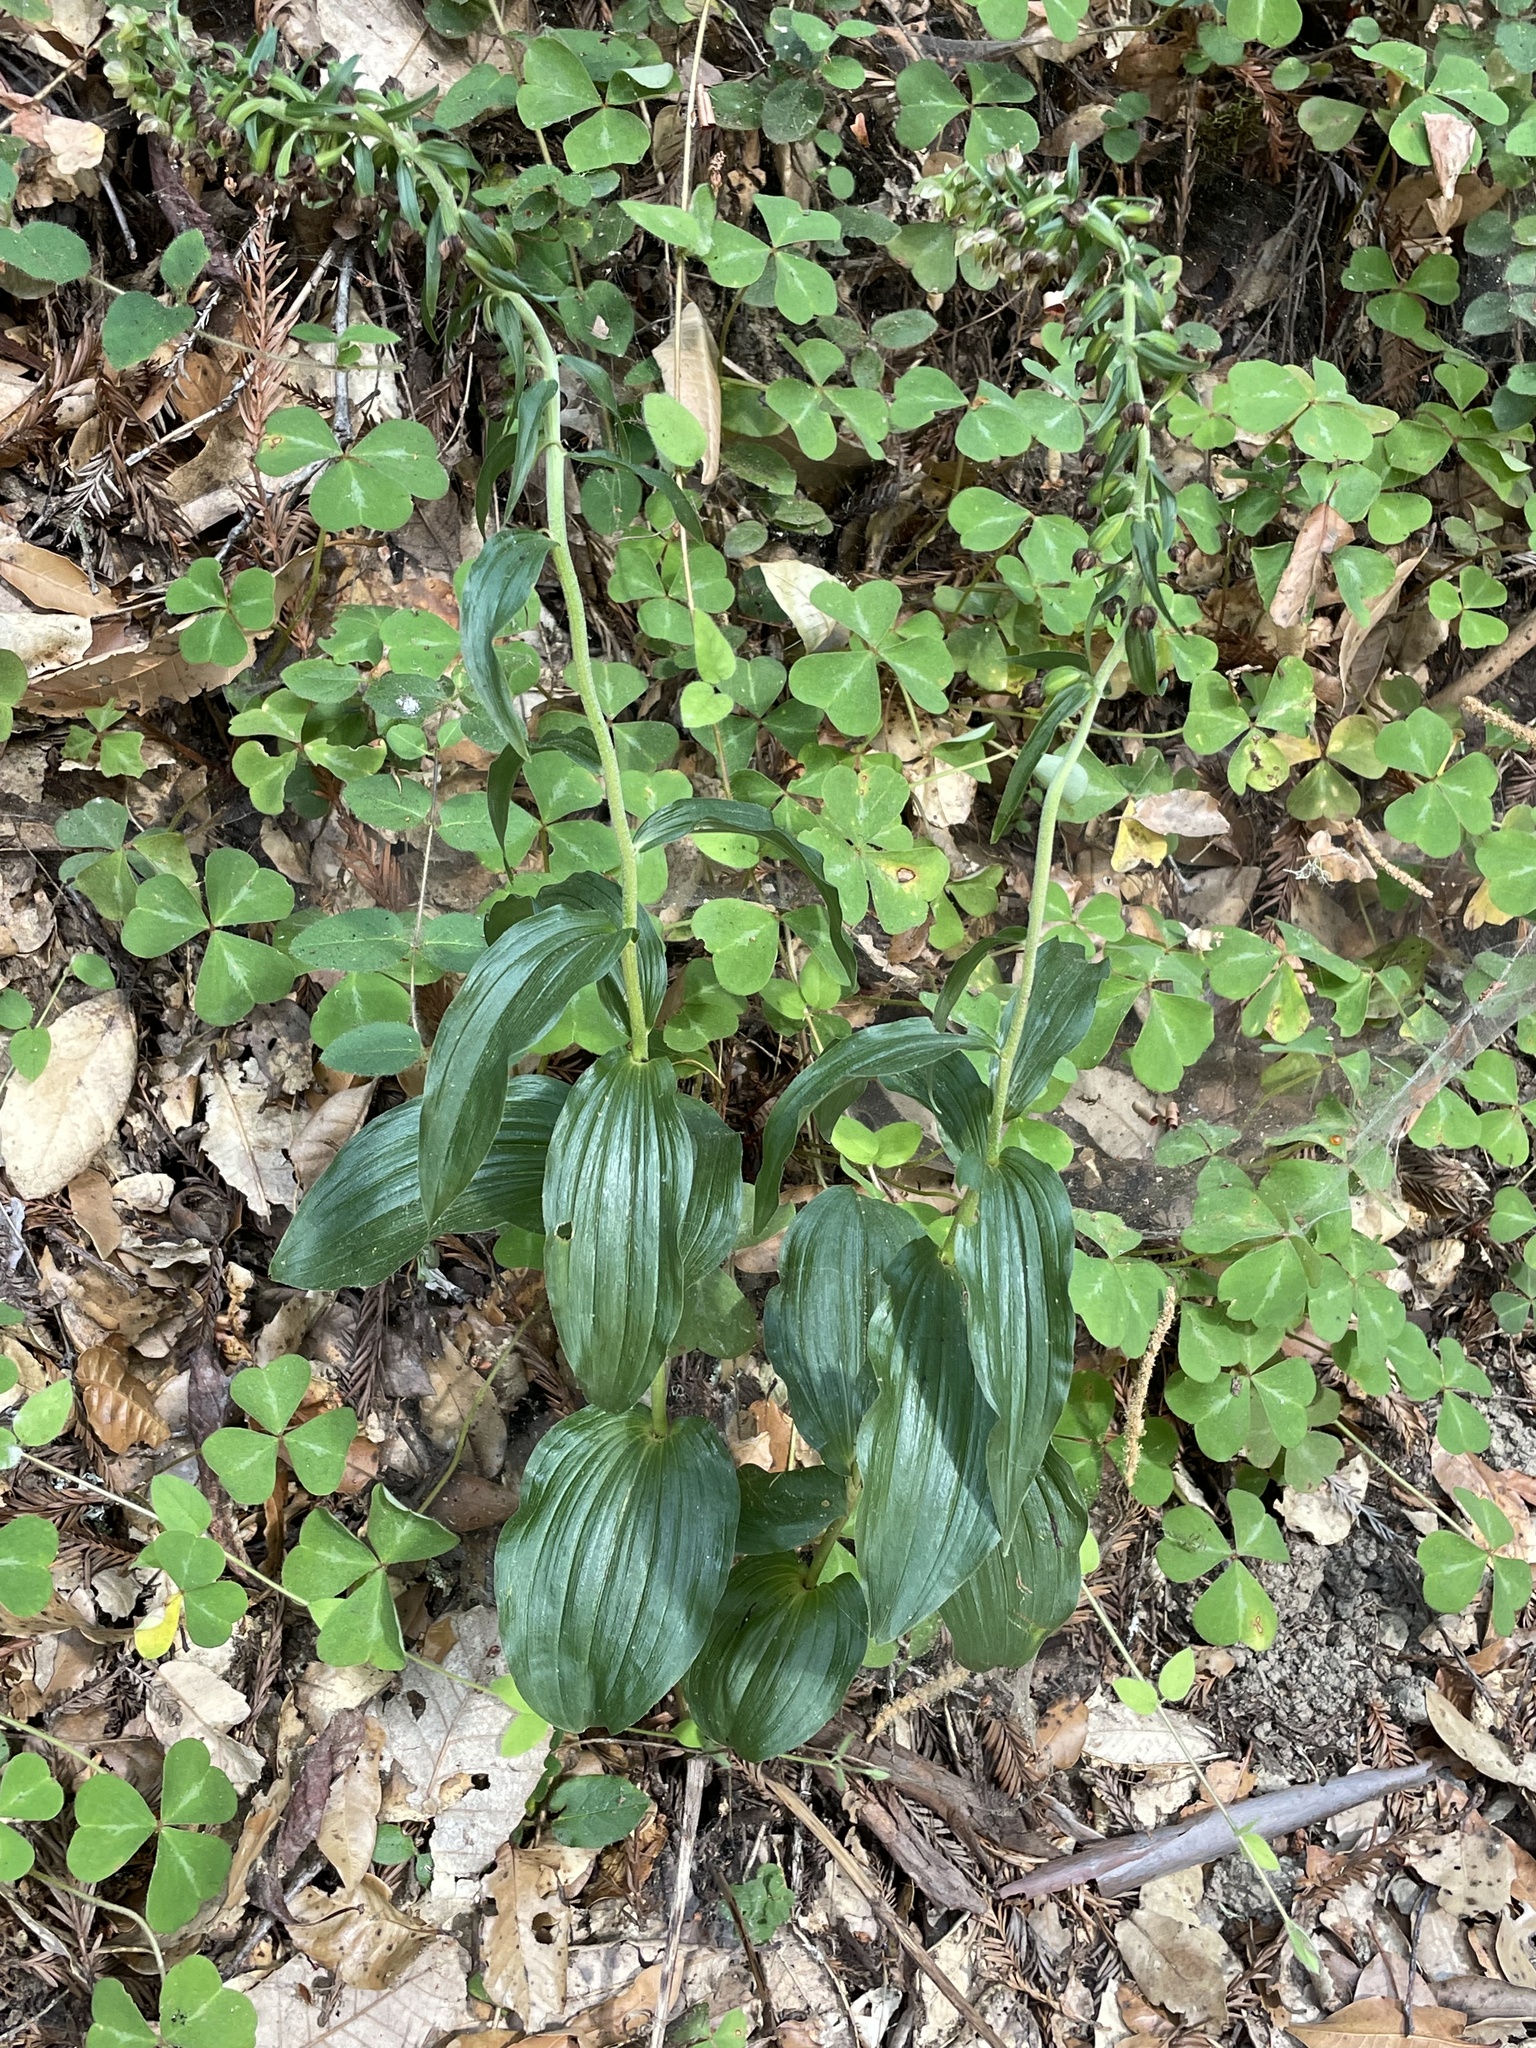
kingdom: Plantae
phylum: Tracheophyta
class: Liliopsida
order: Asparagales
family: Orchidaceae
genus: Epipactis
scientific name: Epipactis helleborine
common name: Broad-leaved helleborine
